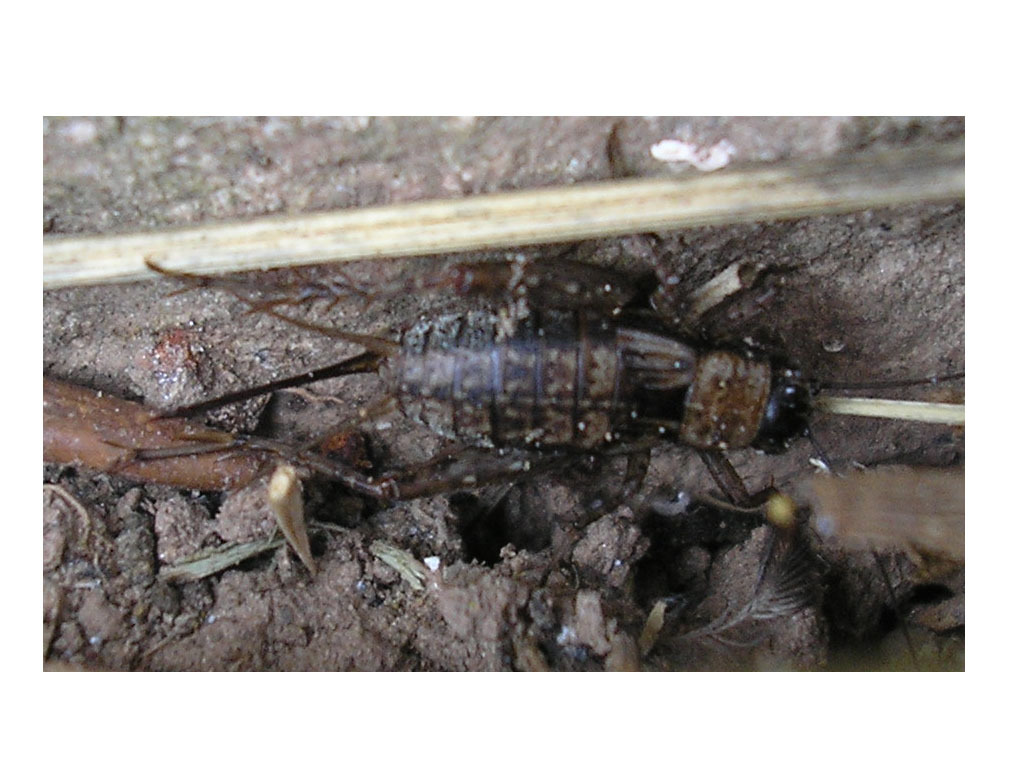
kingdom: Animalia
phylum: Arthropoda
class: Insecta
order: Orthoptera
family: Trigonidiidae
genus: Nemobius
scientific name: Nemobius sylvestris
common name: Wood-cricket
